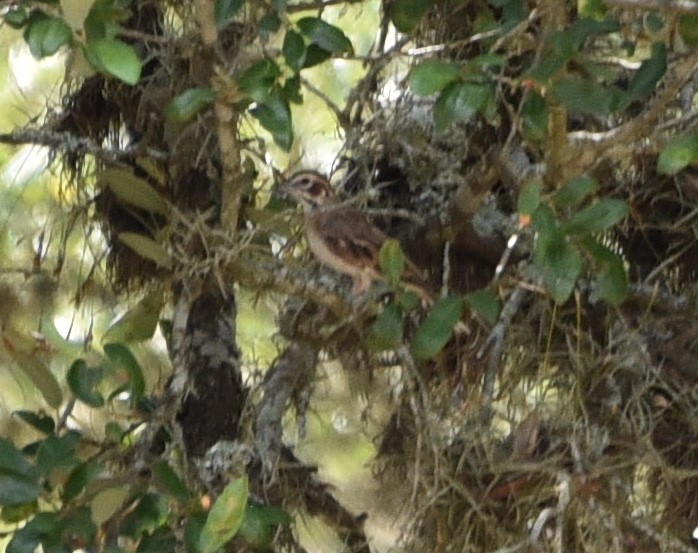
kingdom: Animalia
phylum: Chordata
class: Aves
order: Passeriformes
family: Passerellidae
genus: Chondestes
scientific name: Chondestes grammacus
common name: Lark sparrow
